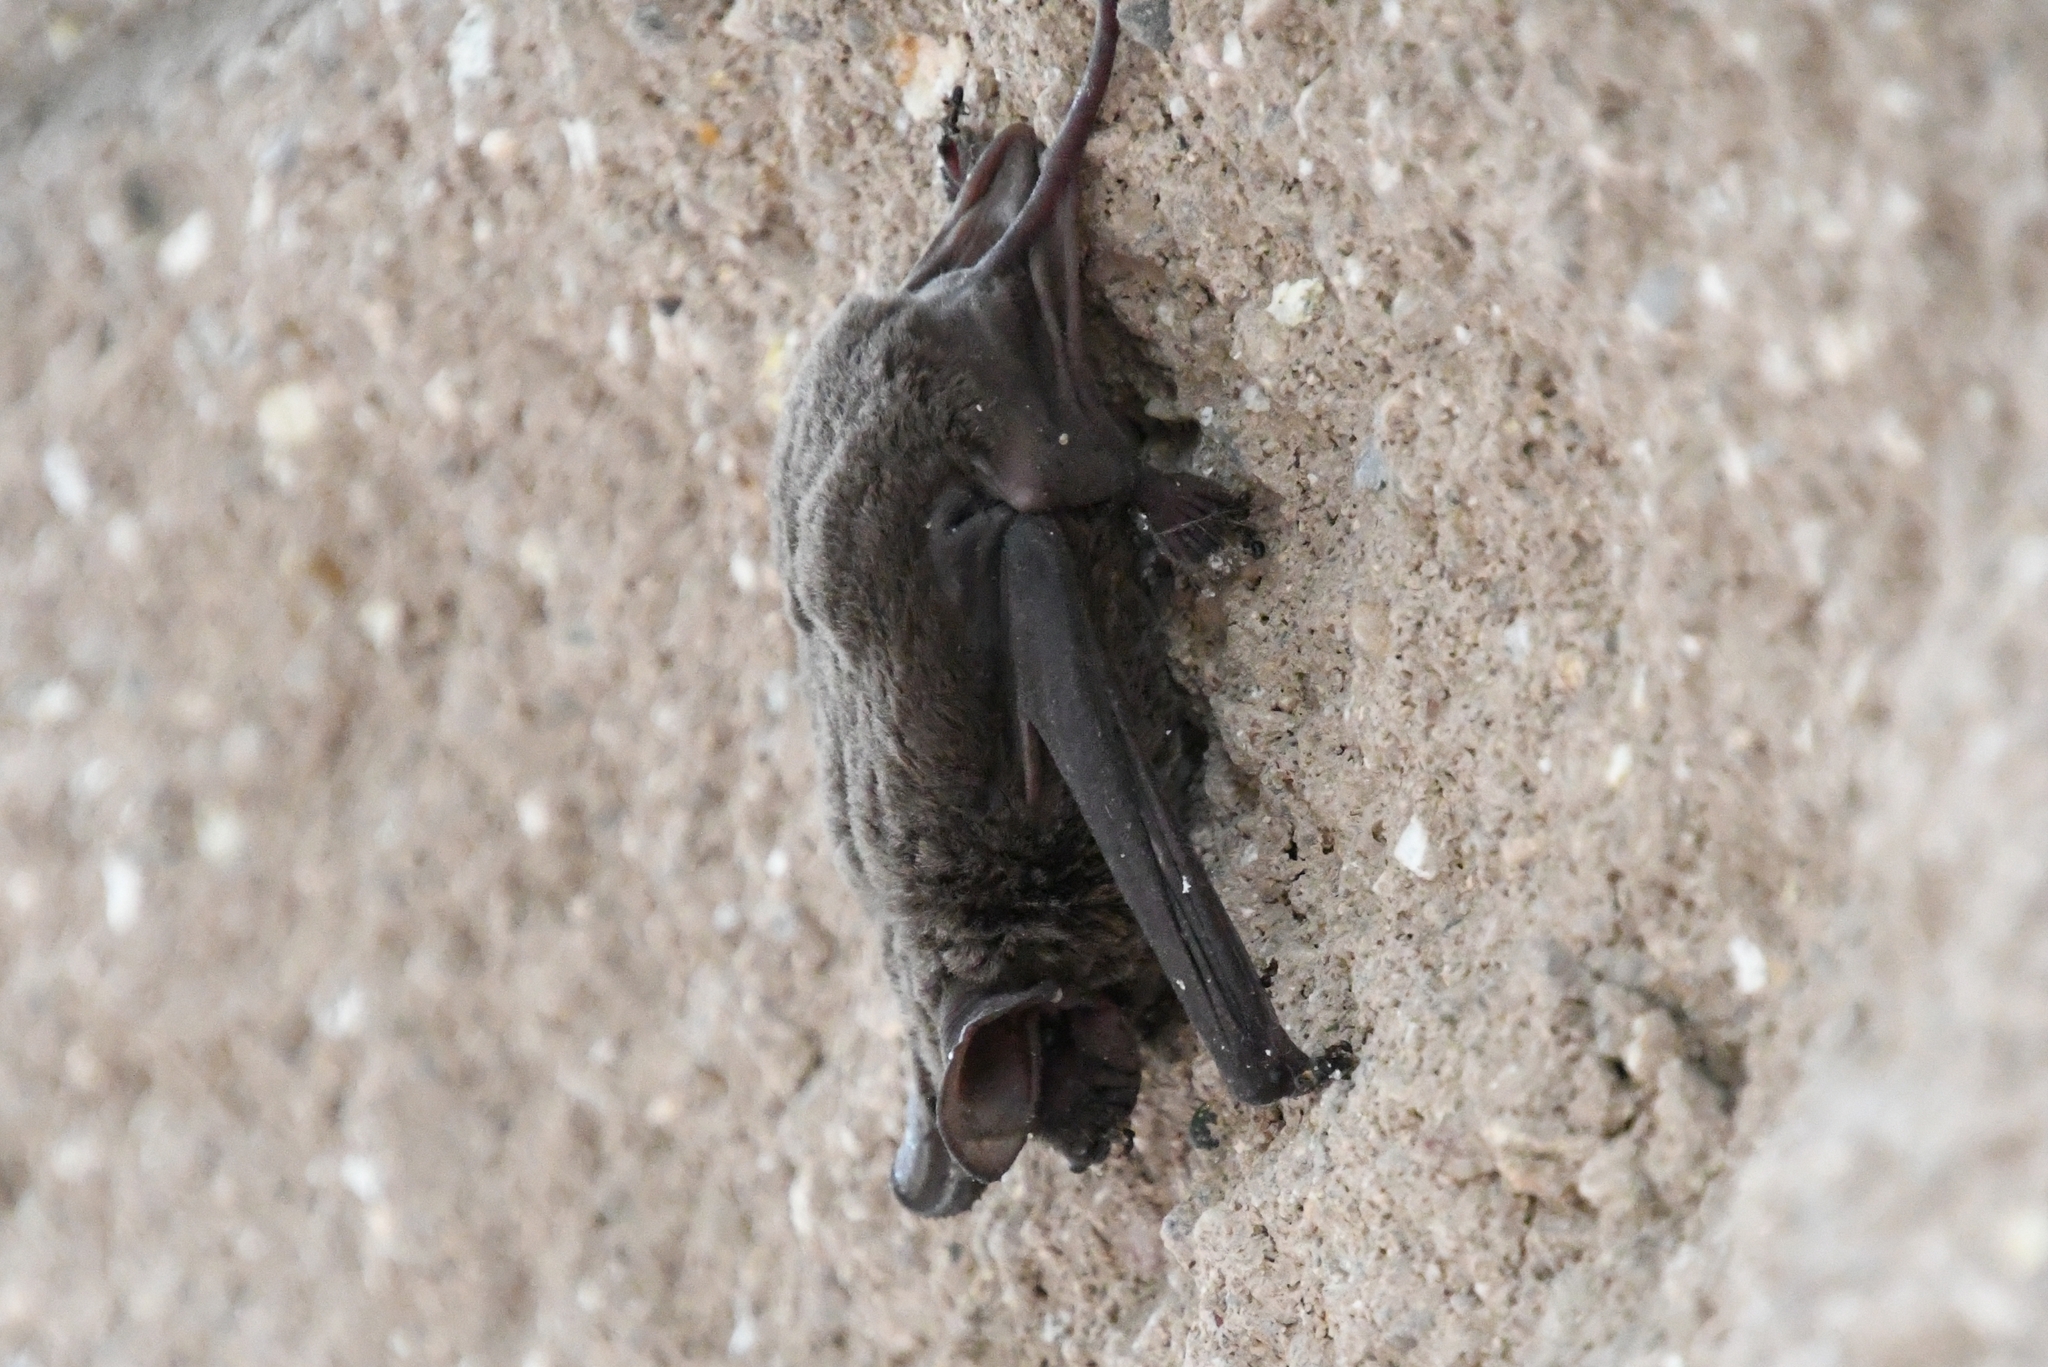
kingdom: Animalia
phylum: Chordata
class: Mammalia
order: Chiroptera
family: Molossidae
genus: Tadarida
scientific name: Tadarida brasiliensis
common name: Mexican free-tailed bat
